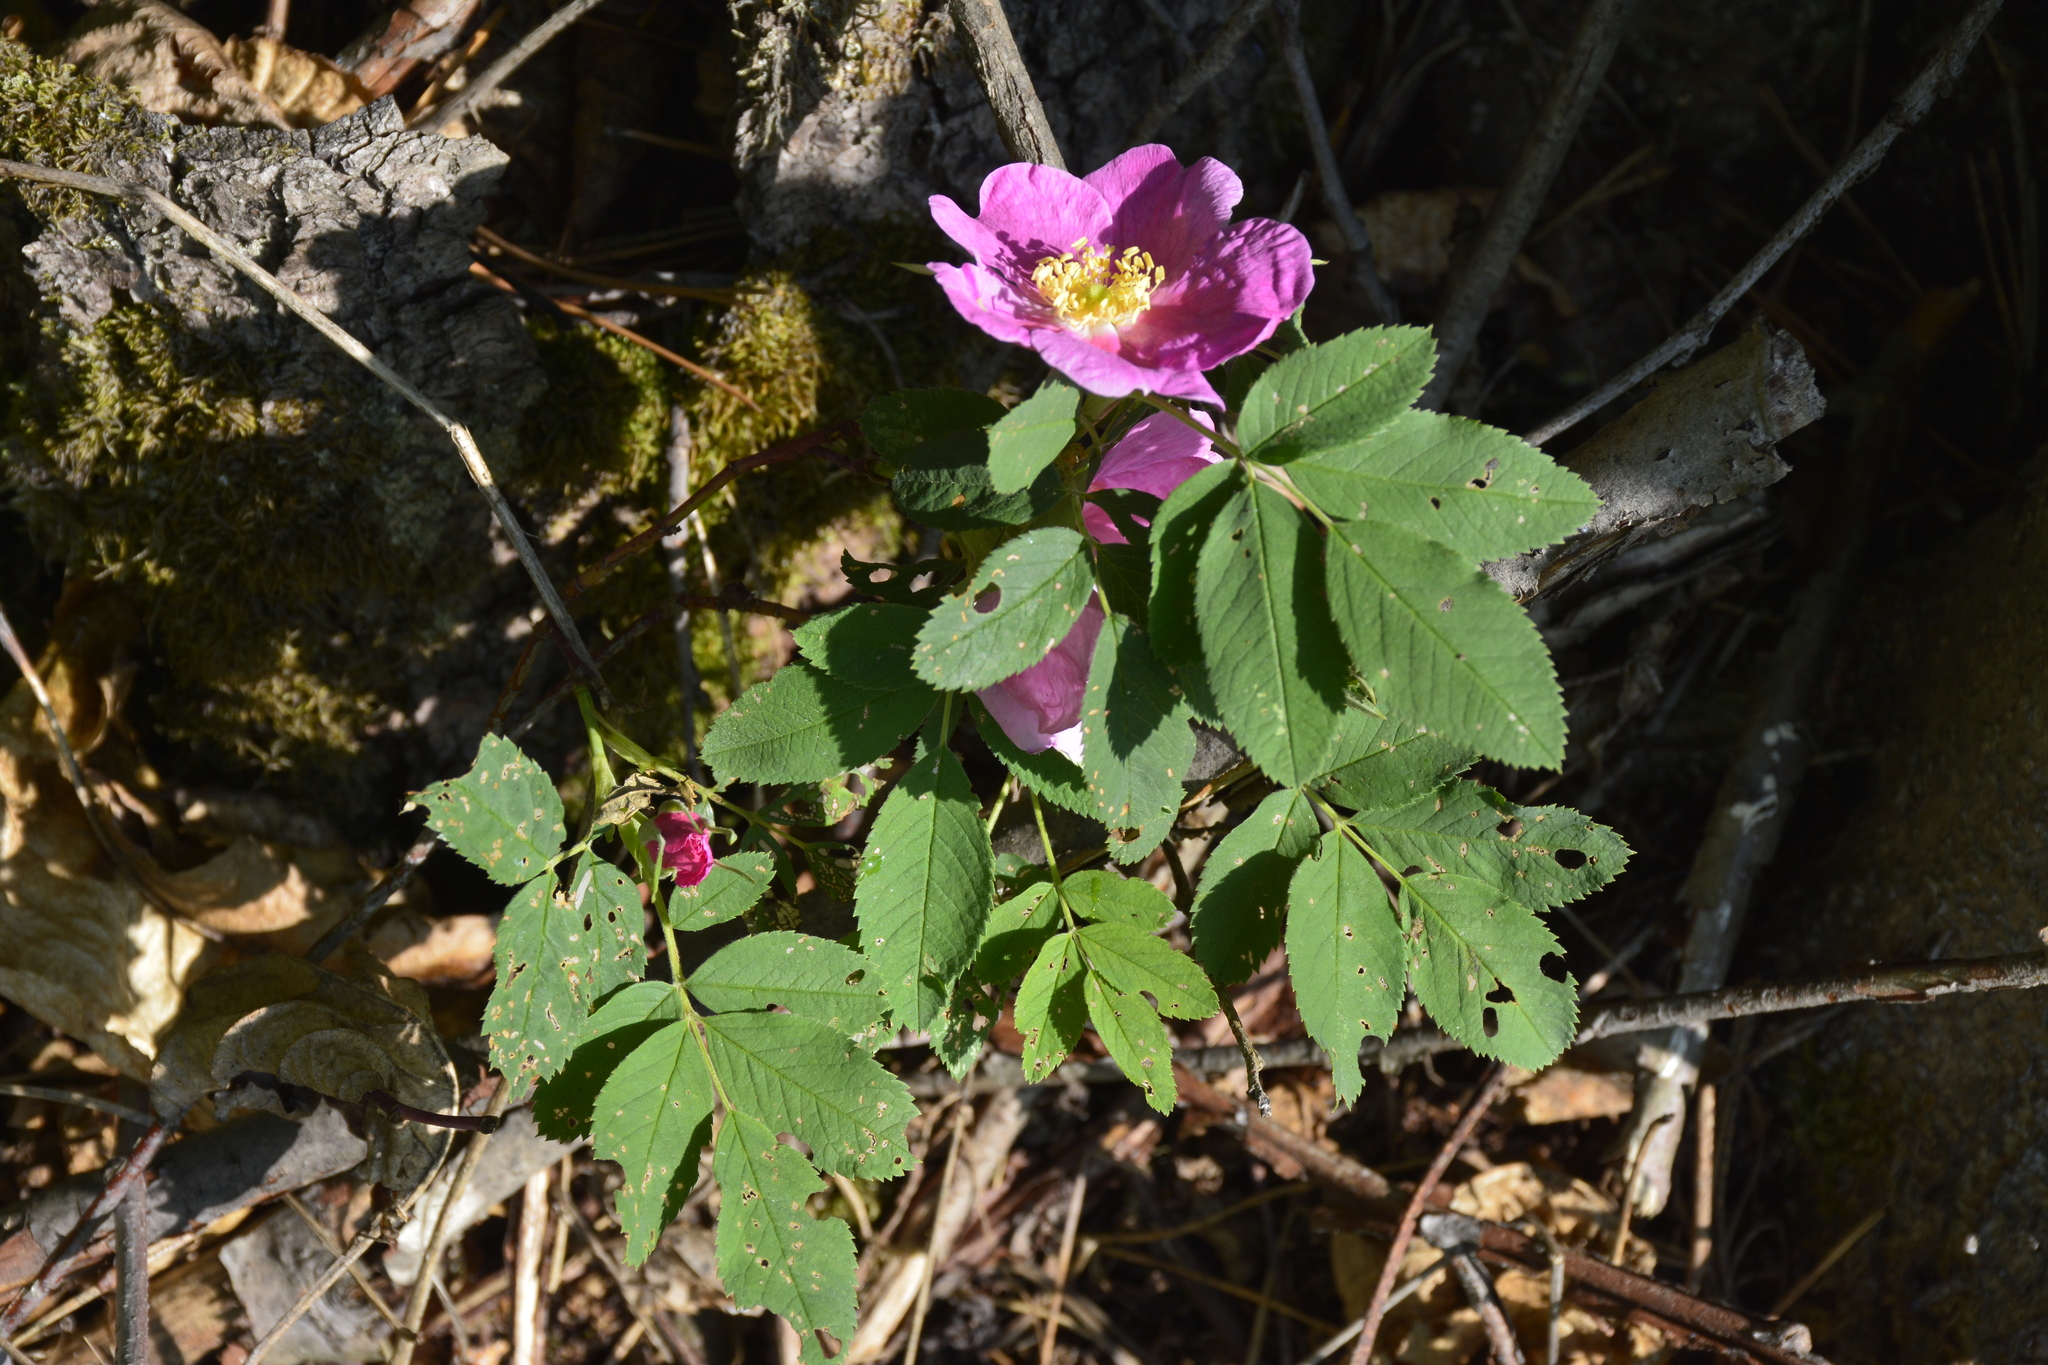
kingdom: Plantae
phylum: Tracheophyta
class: Magnoliopsida
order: Rosales
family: Rosaceae
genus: Rosa
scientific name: Rosa majalis
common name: Cinnamon rose
